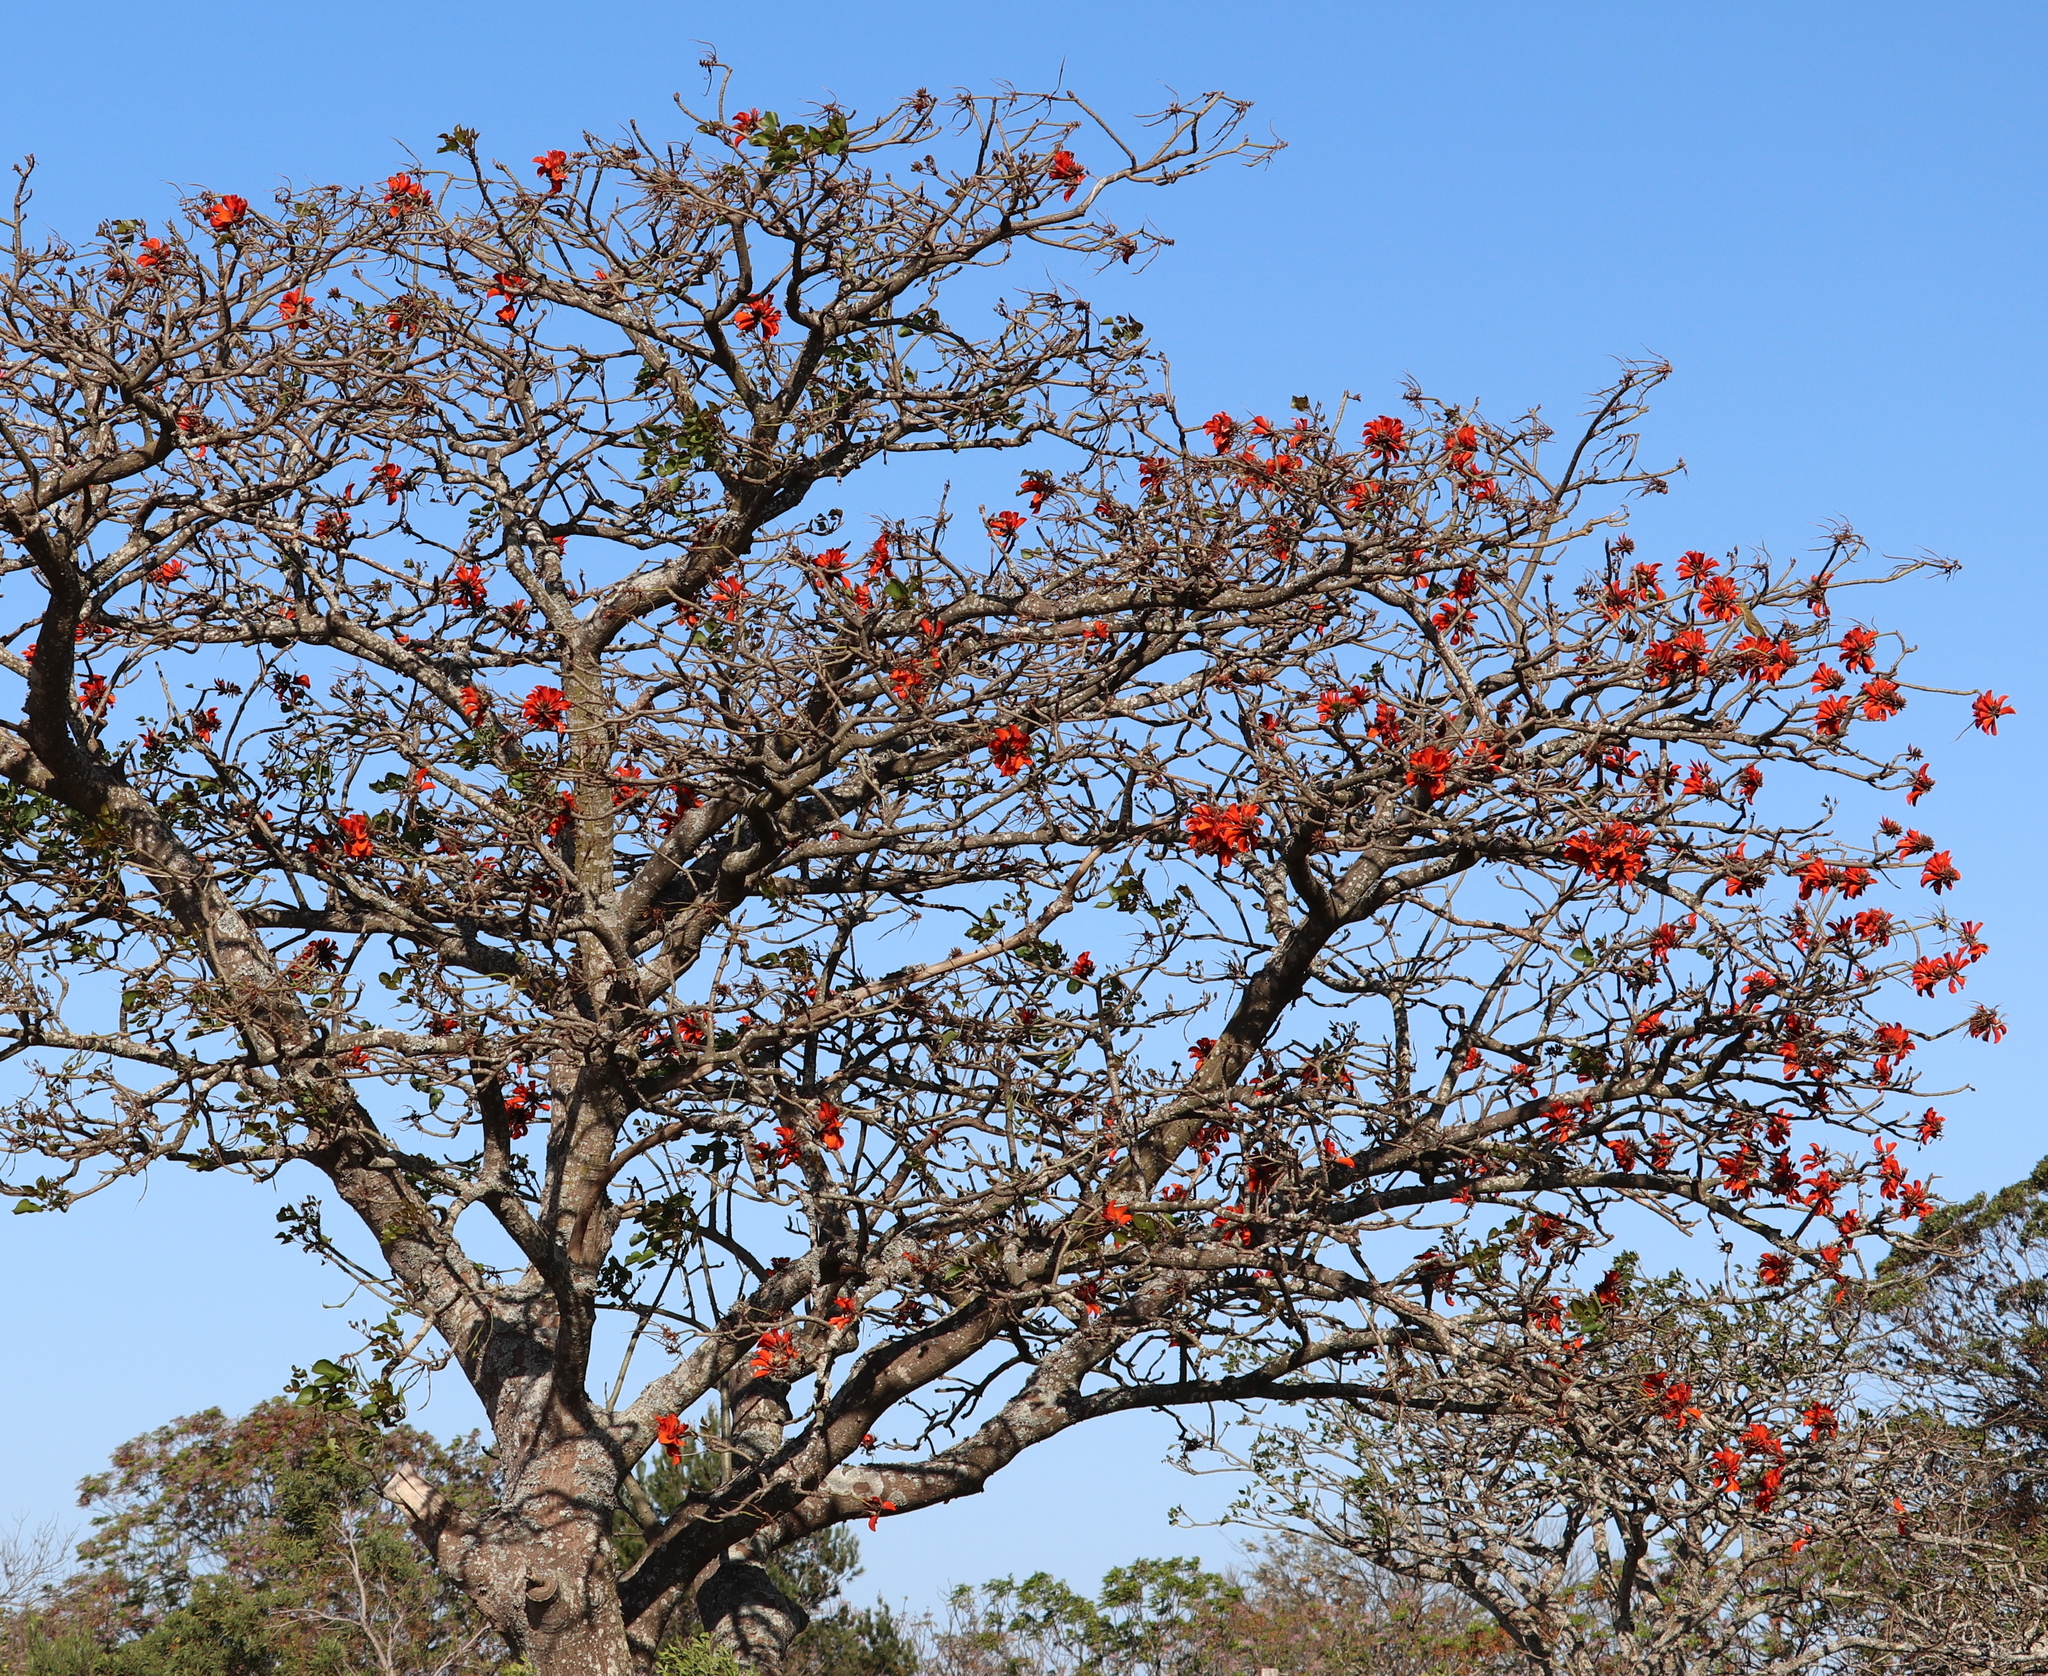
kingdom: Plantae
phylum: Tracheophyta
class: Magnoliopsida
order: Fabales
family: Fabaceae
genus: Erythrina
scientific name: Erythrina caffra
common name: Coast coral tree
